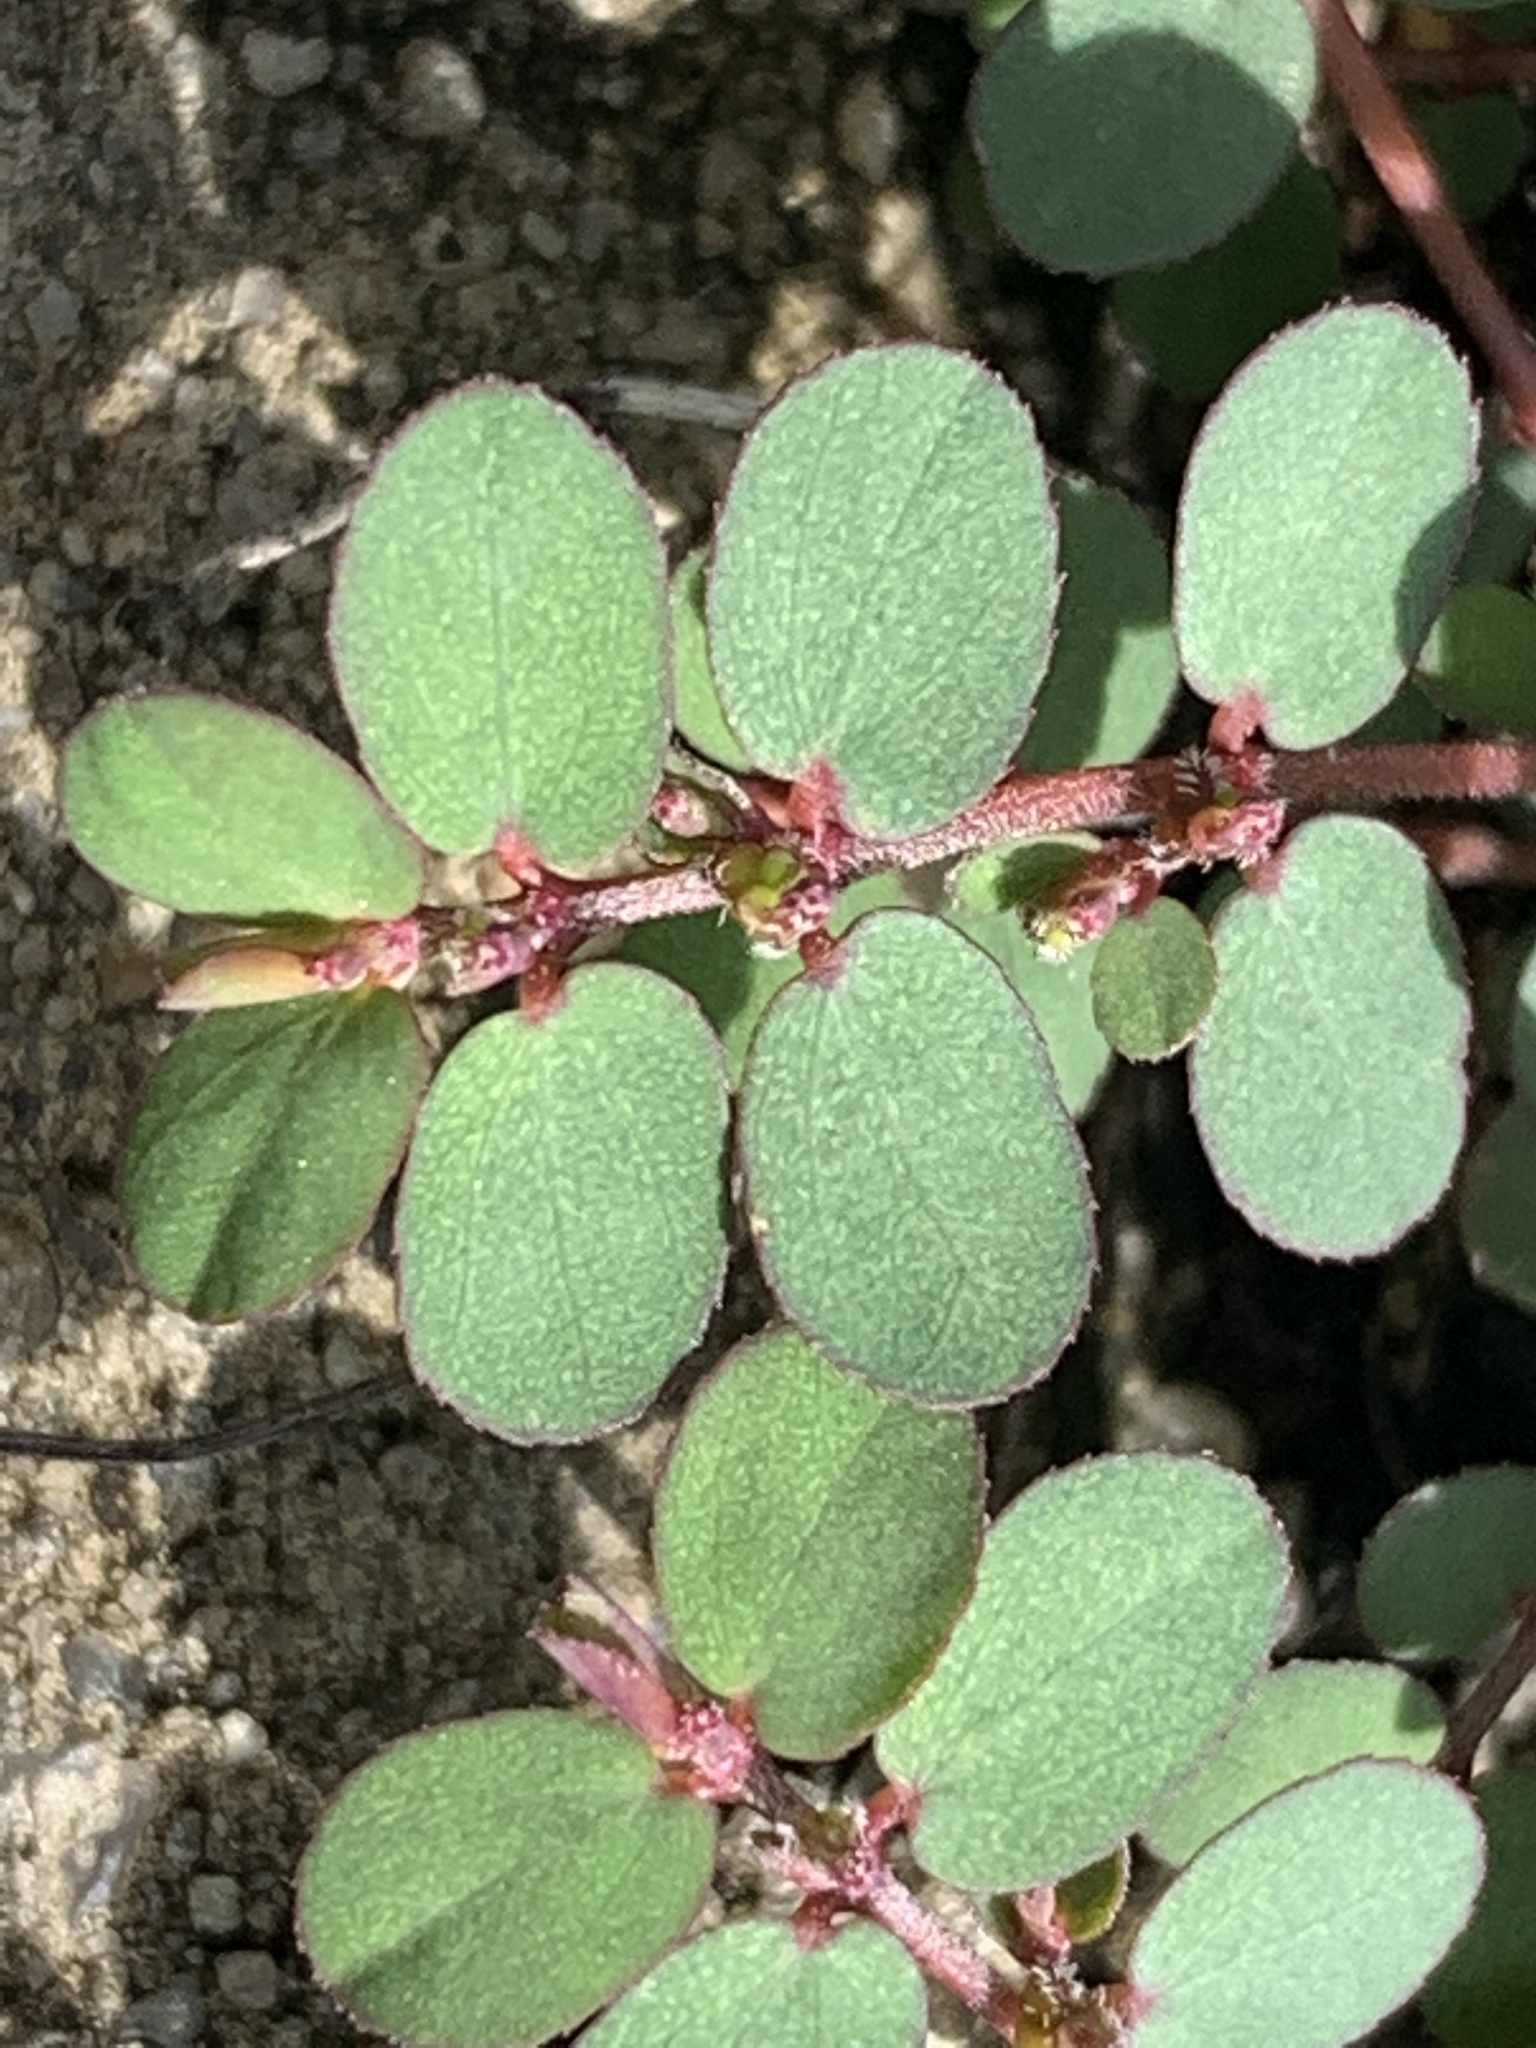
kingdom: Plantae
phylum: Tracheophyta
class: Magnoliopsida
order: Malpighiales
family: Euphorbiaceae
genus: Euphorbia
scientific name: Euphorbia prostrata
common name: Prostrate sandmat
